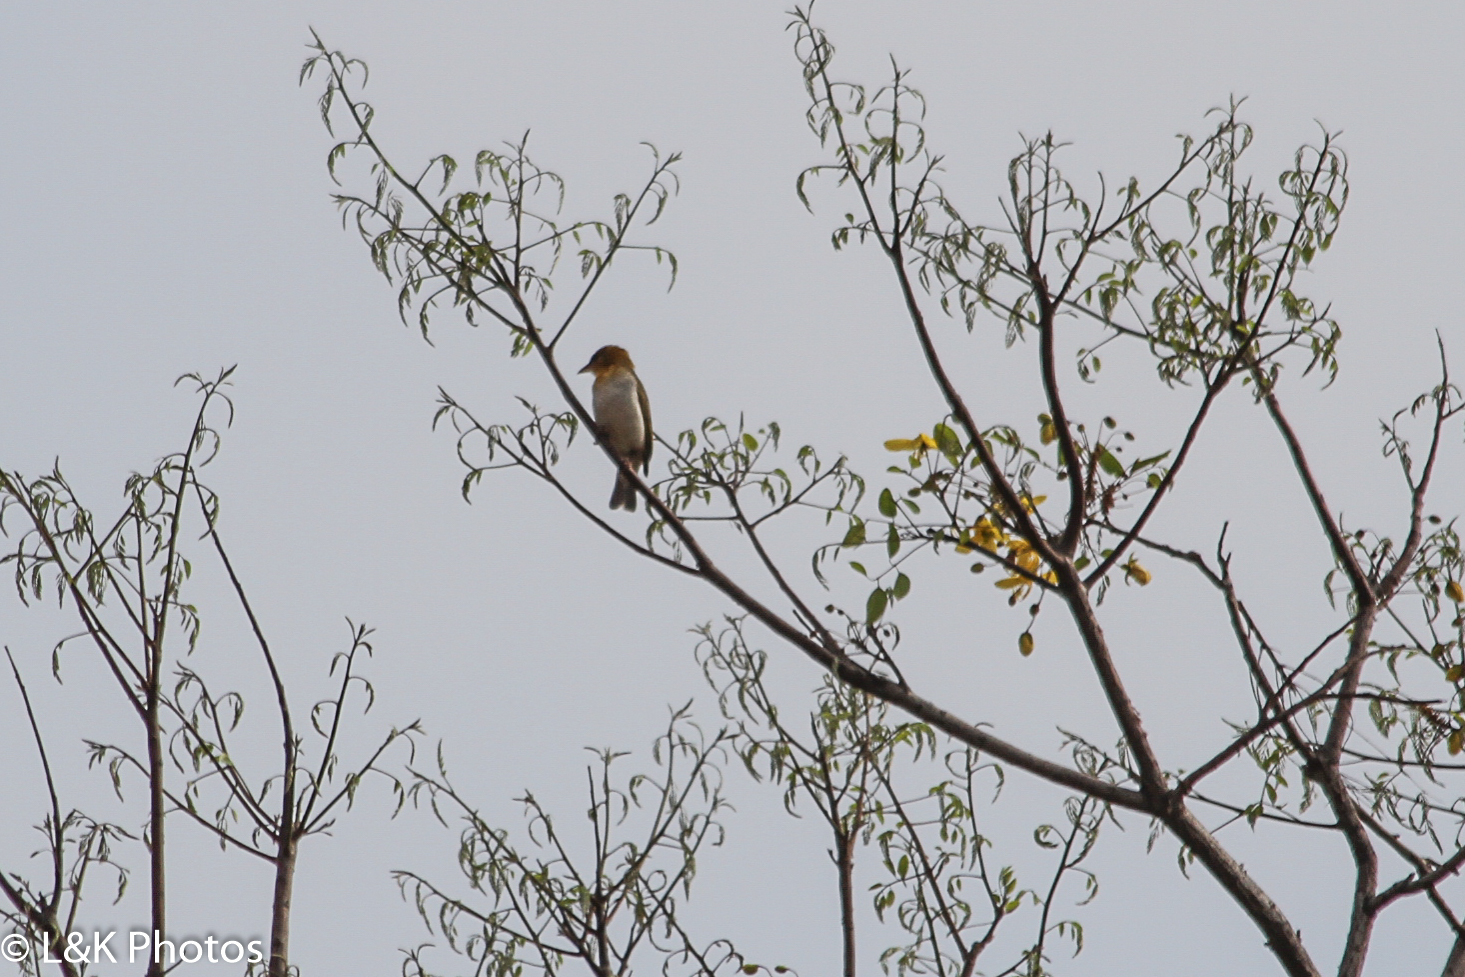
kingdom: Animalia
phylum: Chordata
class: Aves
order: Passeriformes
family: Ploceidae
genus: Anaplectes
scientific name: Anaplectes rubriceps
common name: Red-headed weaver
